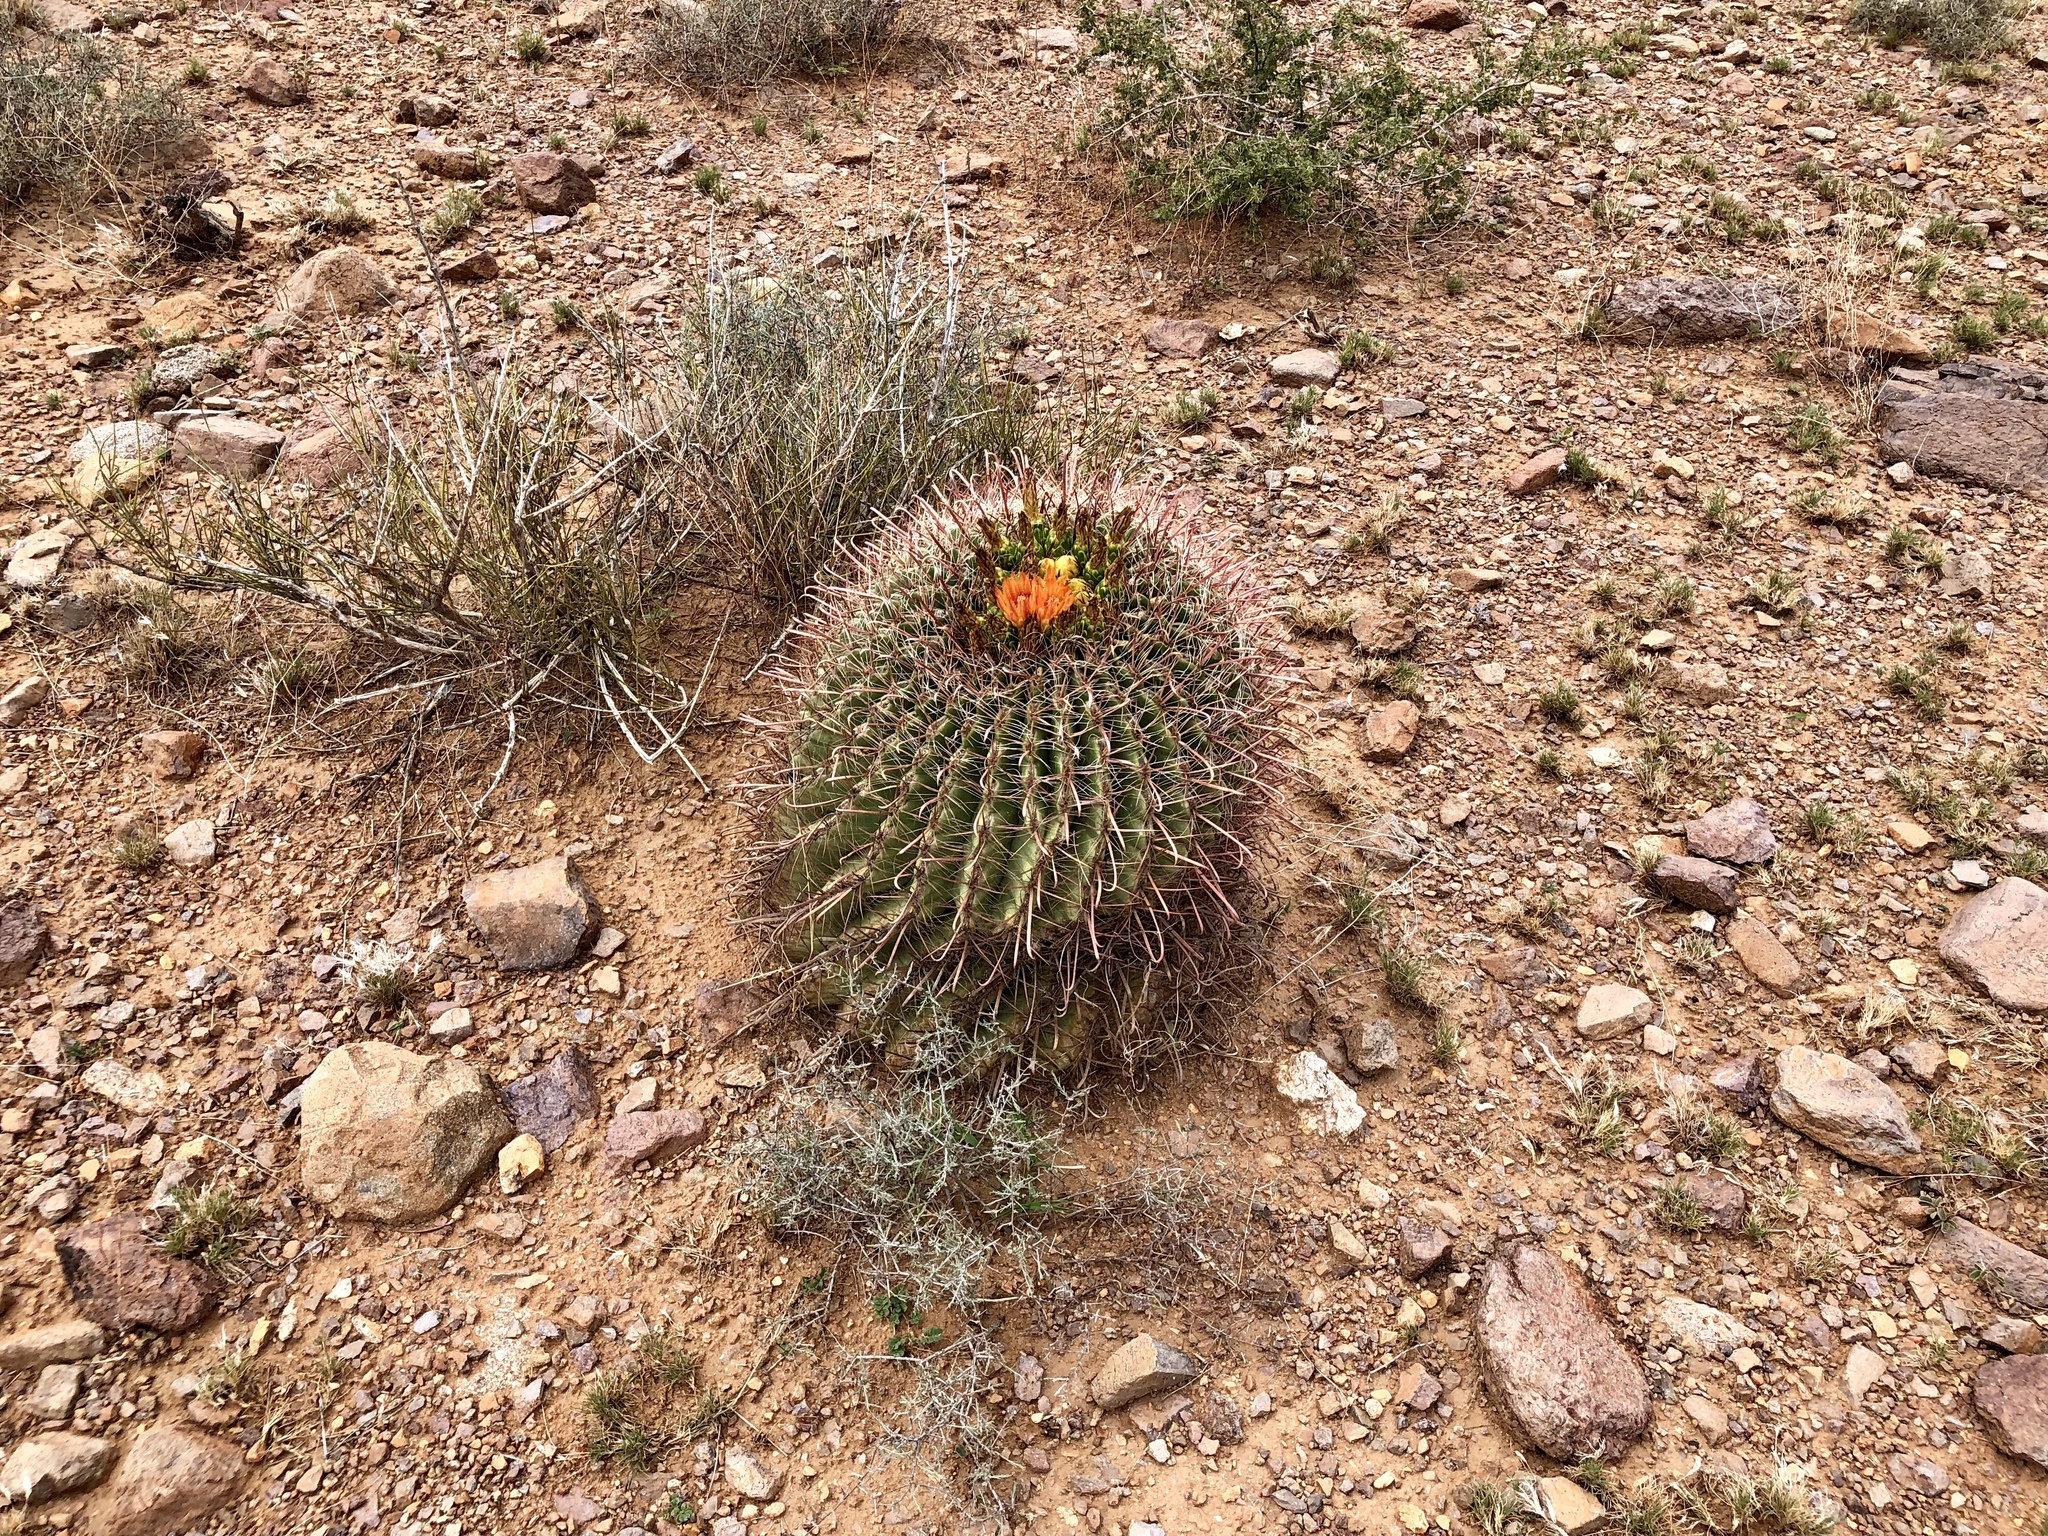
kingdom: Plantae
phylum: Tracheophyta
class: Magnoliopsida
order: Caryophyllales
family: Cactaceae
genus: Ferocactus
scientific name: Ferocactus wislizeni
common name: Candy barrel cactus
